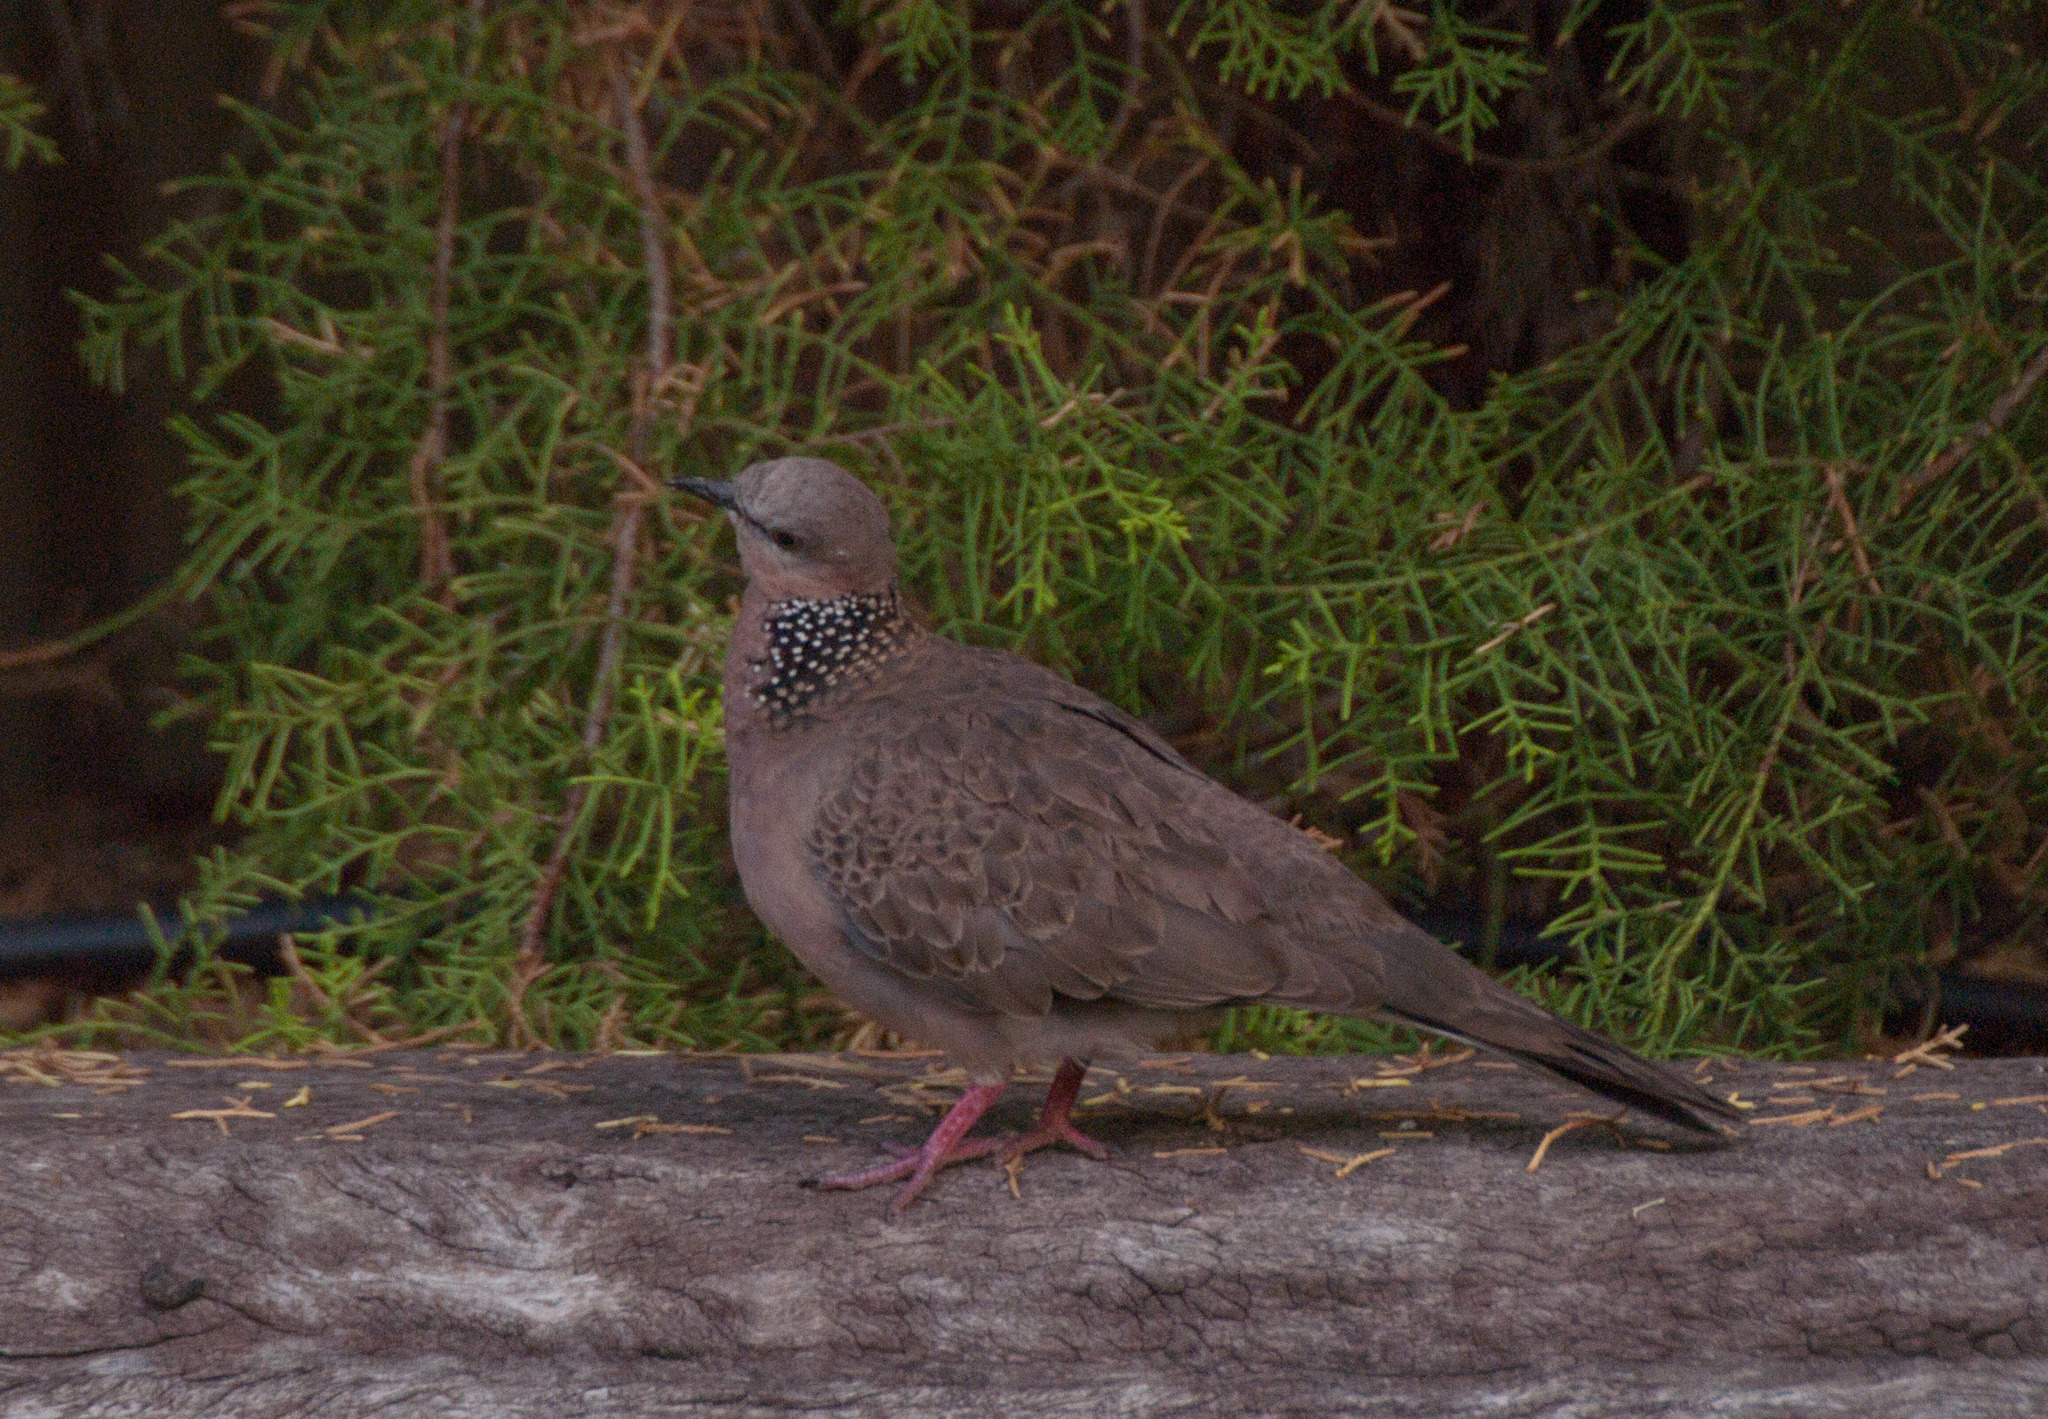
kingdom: Animalia
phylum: Chordata
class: Aves
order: Columbiformes
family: Columbidae
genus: Spilopelia
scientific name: Spilopelia chinensis
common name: Spotted dove
